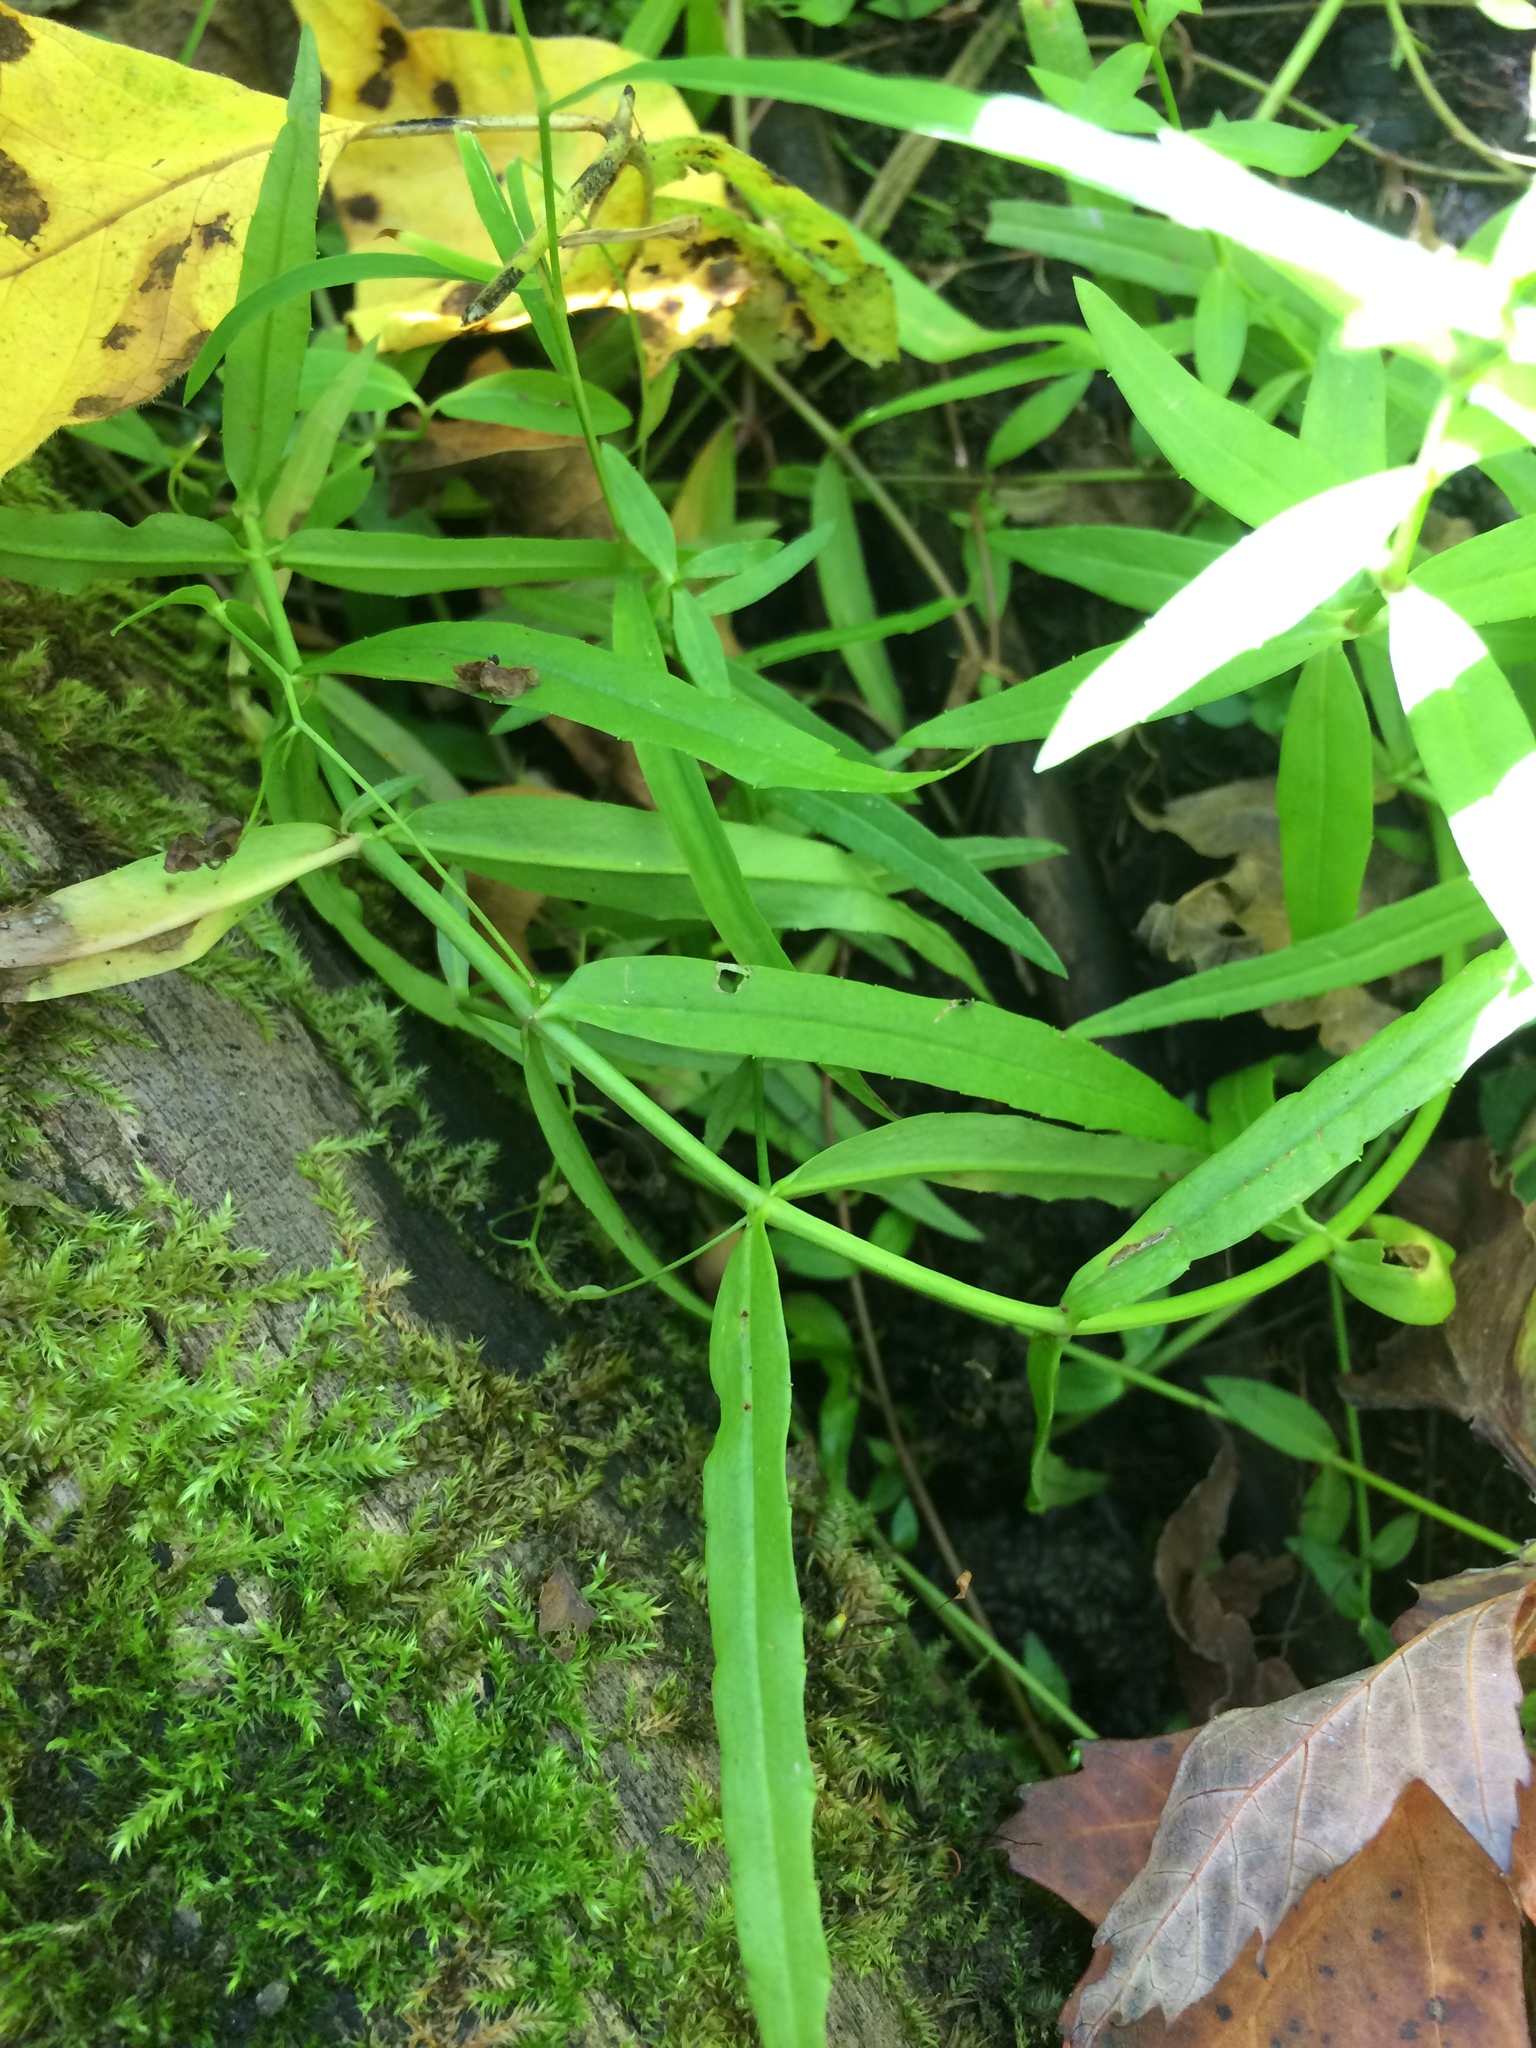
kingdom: Plantae
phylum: Tracheophyta
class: Magnoliopsida
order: Lamiales
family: Plantaginaceae
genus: Veronica
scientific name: Veronica scutellata
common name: Marsh speedwell
